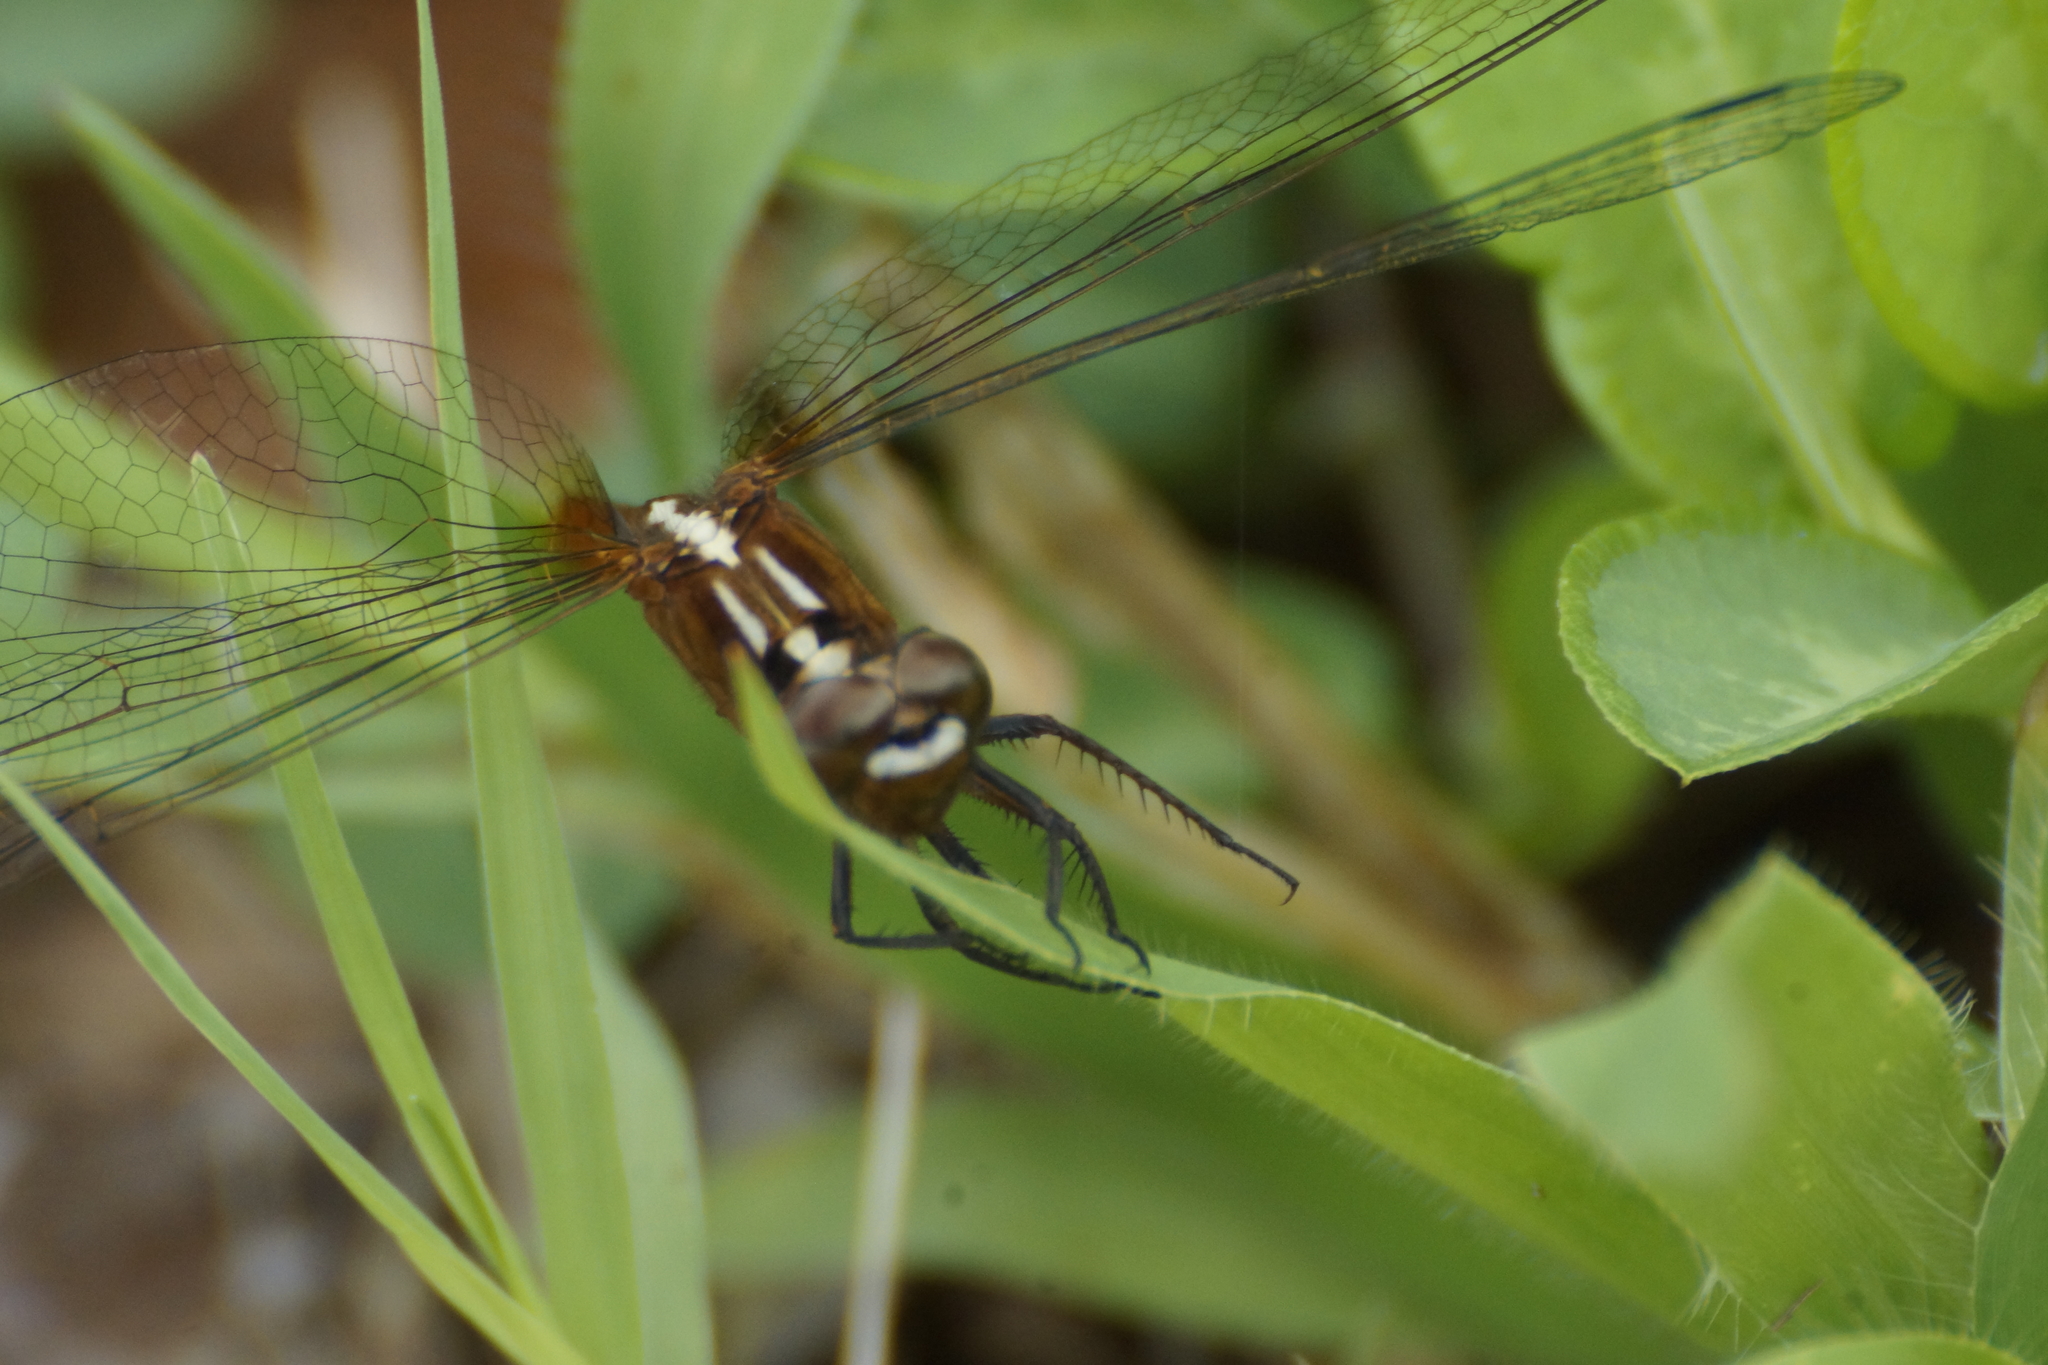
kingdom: Animalia
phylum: Arthropoda
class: Insecta
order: Odonata
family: Libellulidae
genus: Rhodothemis
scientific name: Rhodothemis lieftincki
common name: Red arrow
